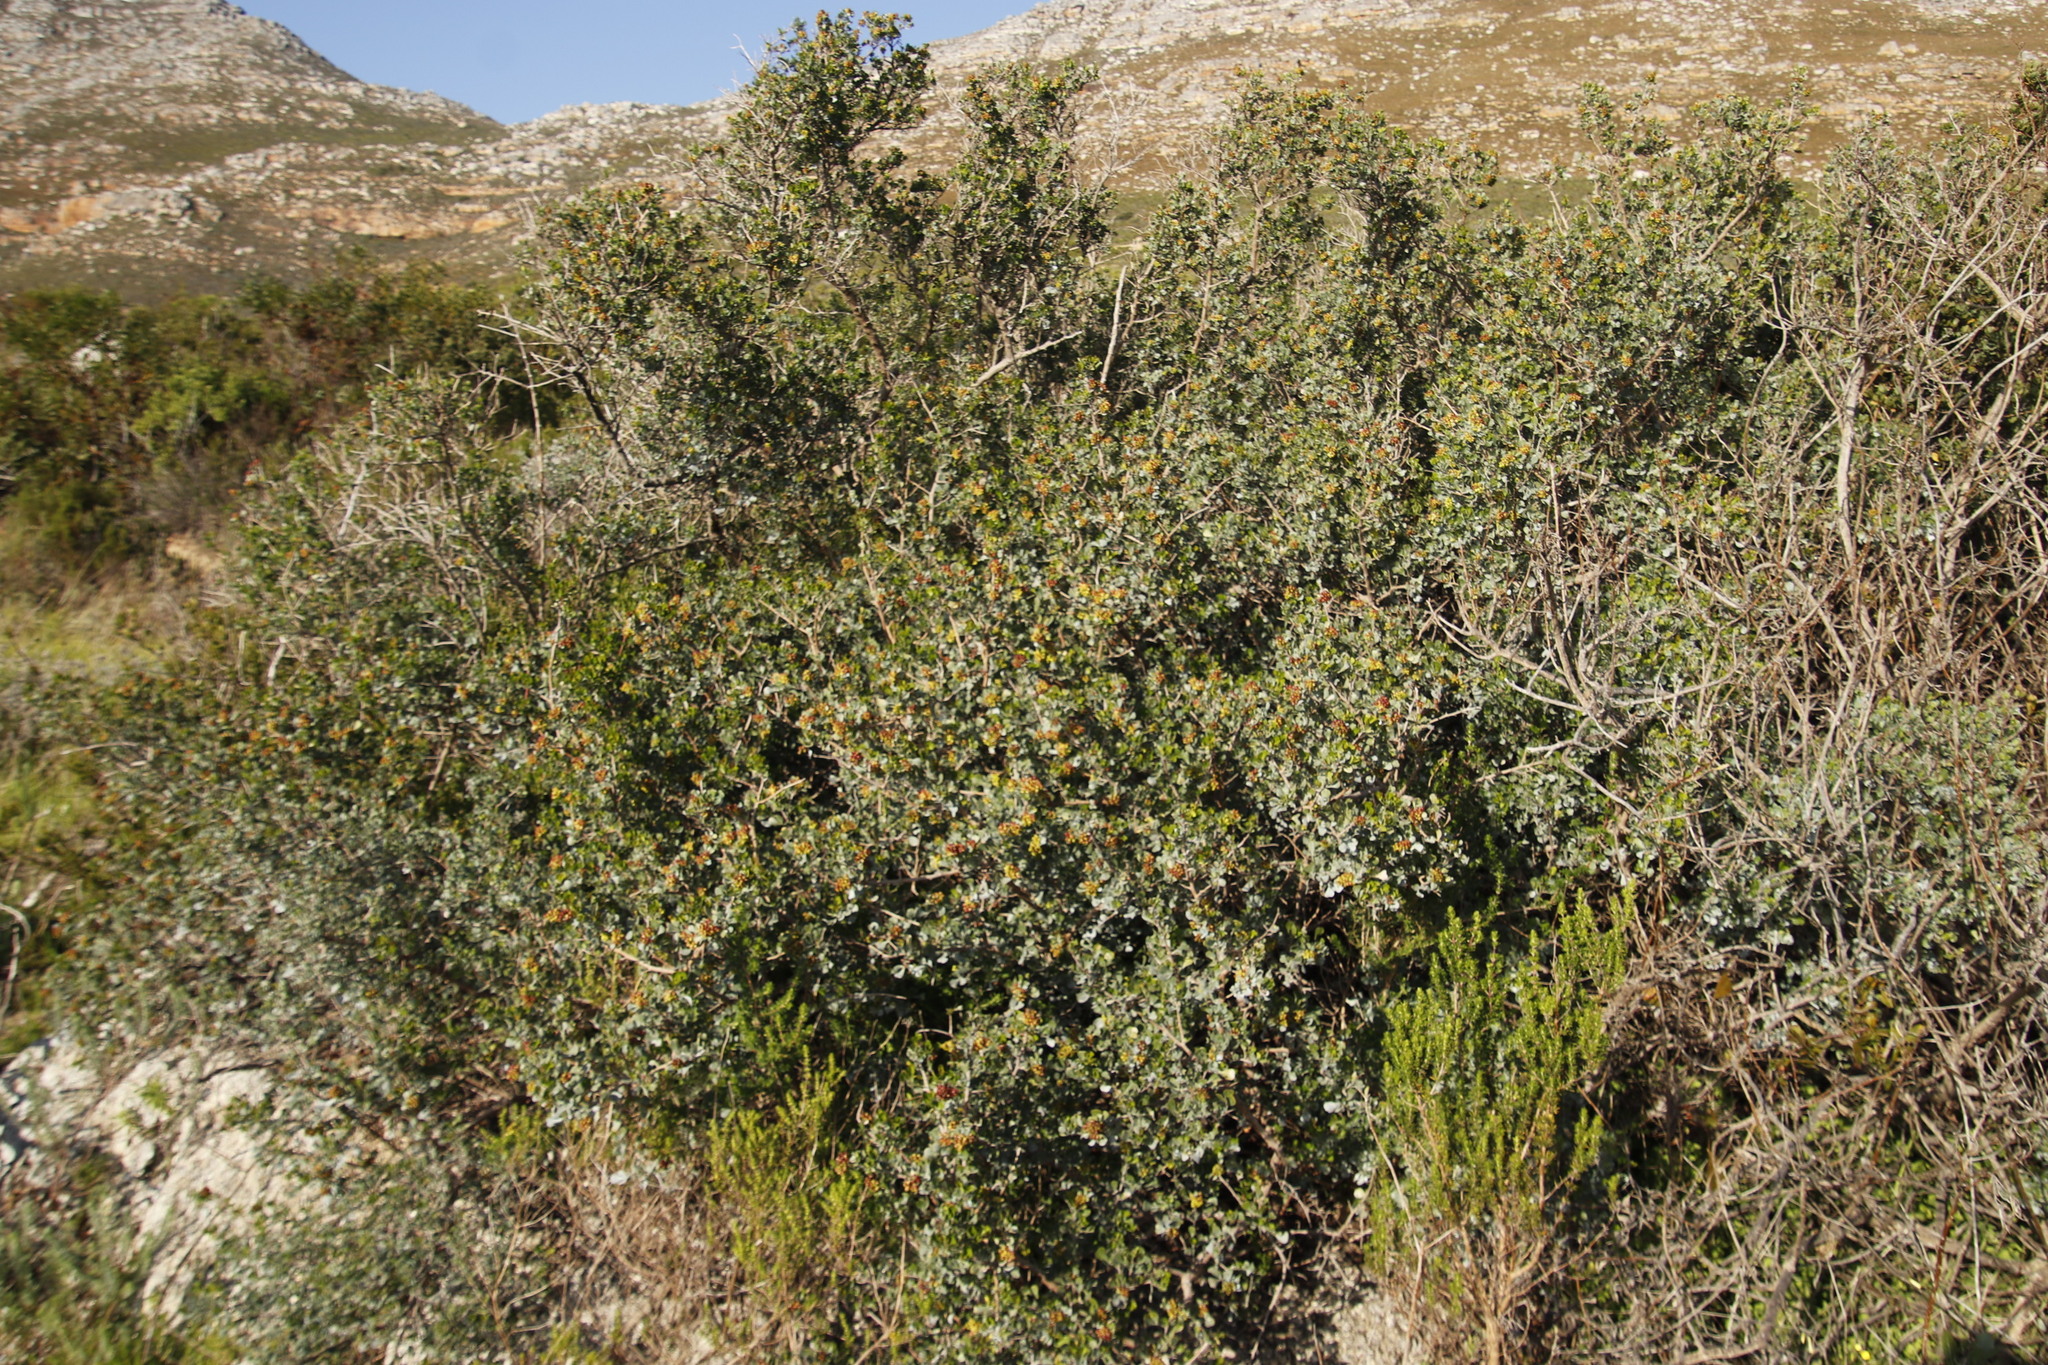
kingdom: Plantae
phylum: Tracheophyta
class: Magnoliopsida
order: Sapindales
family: Anacardiaceae
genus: Searsia
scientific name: Searsia glauca
